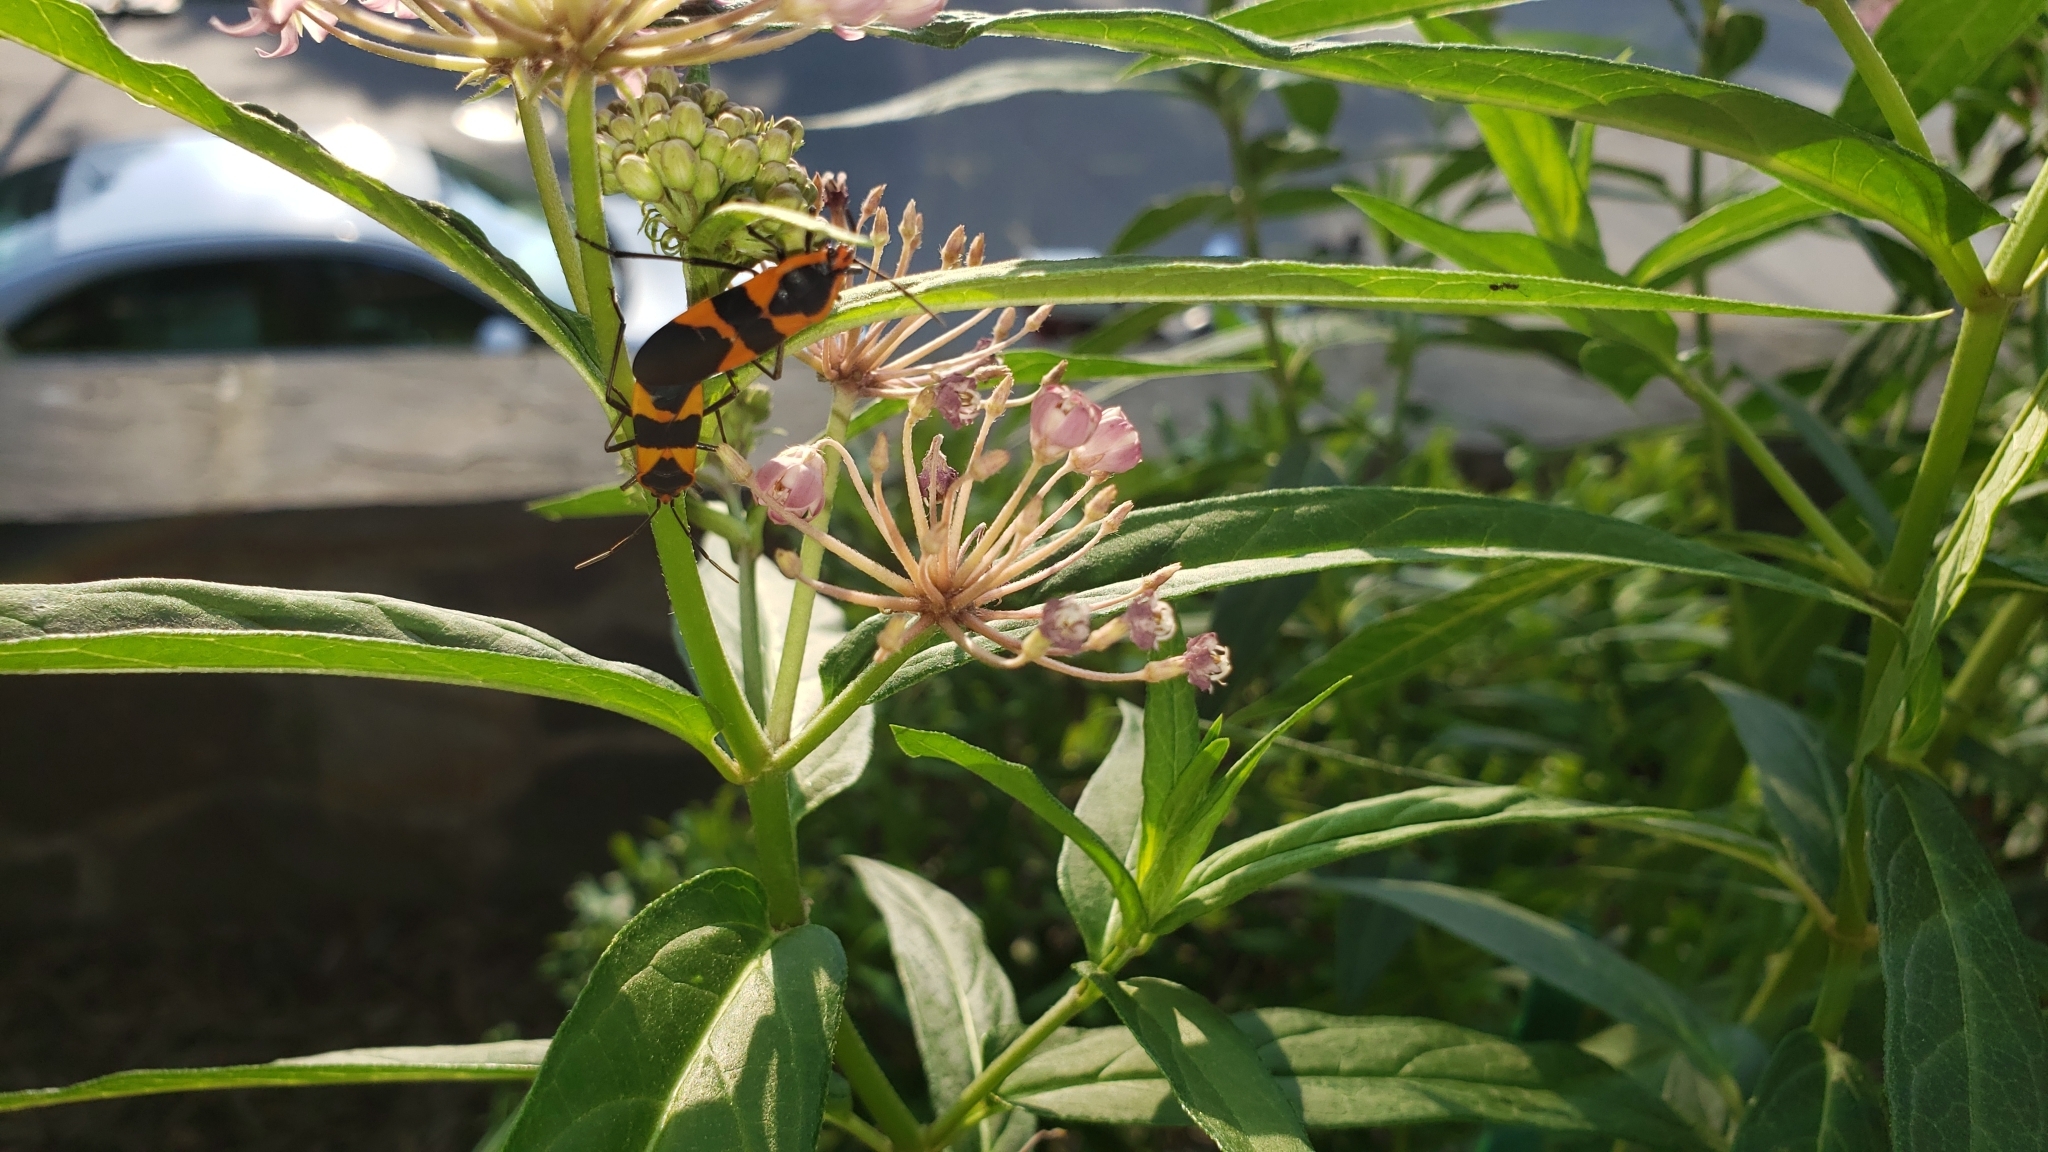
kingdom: Animalia
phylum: Arthropoda
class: Insecta
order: Hemiptera
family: Lygaeidae
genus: Oncopeltus
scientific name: Oncopeltus fasciatus
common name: Large milkweed bug
